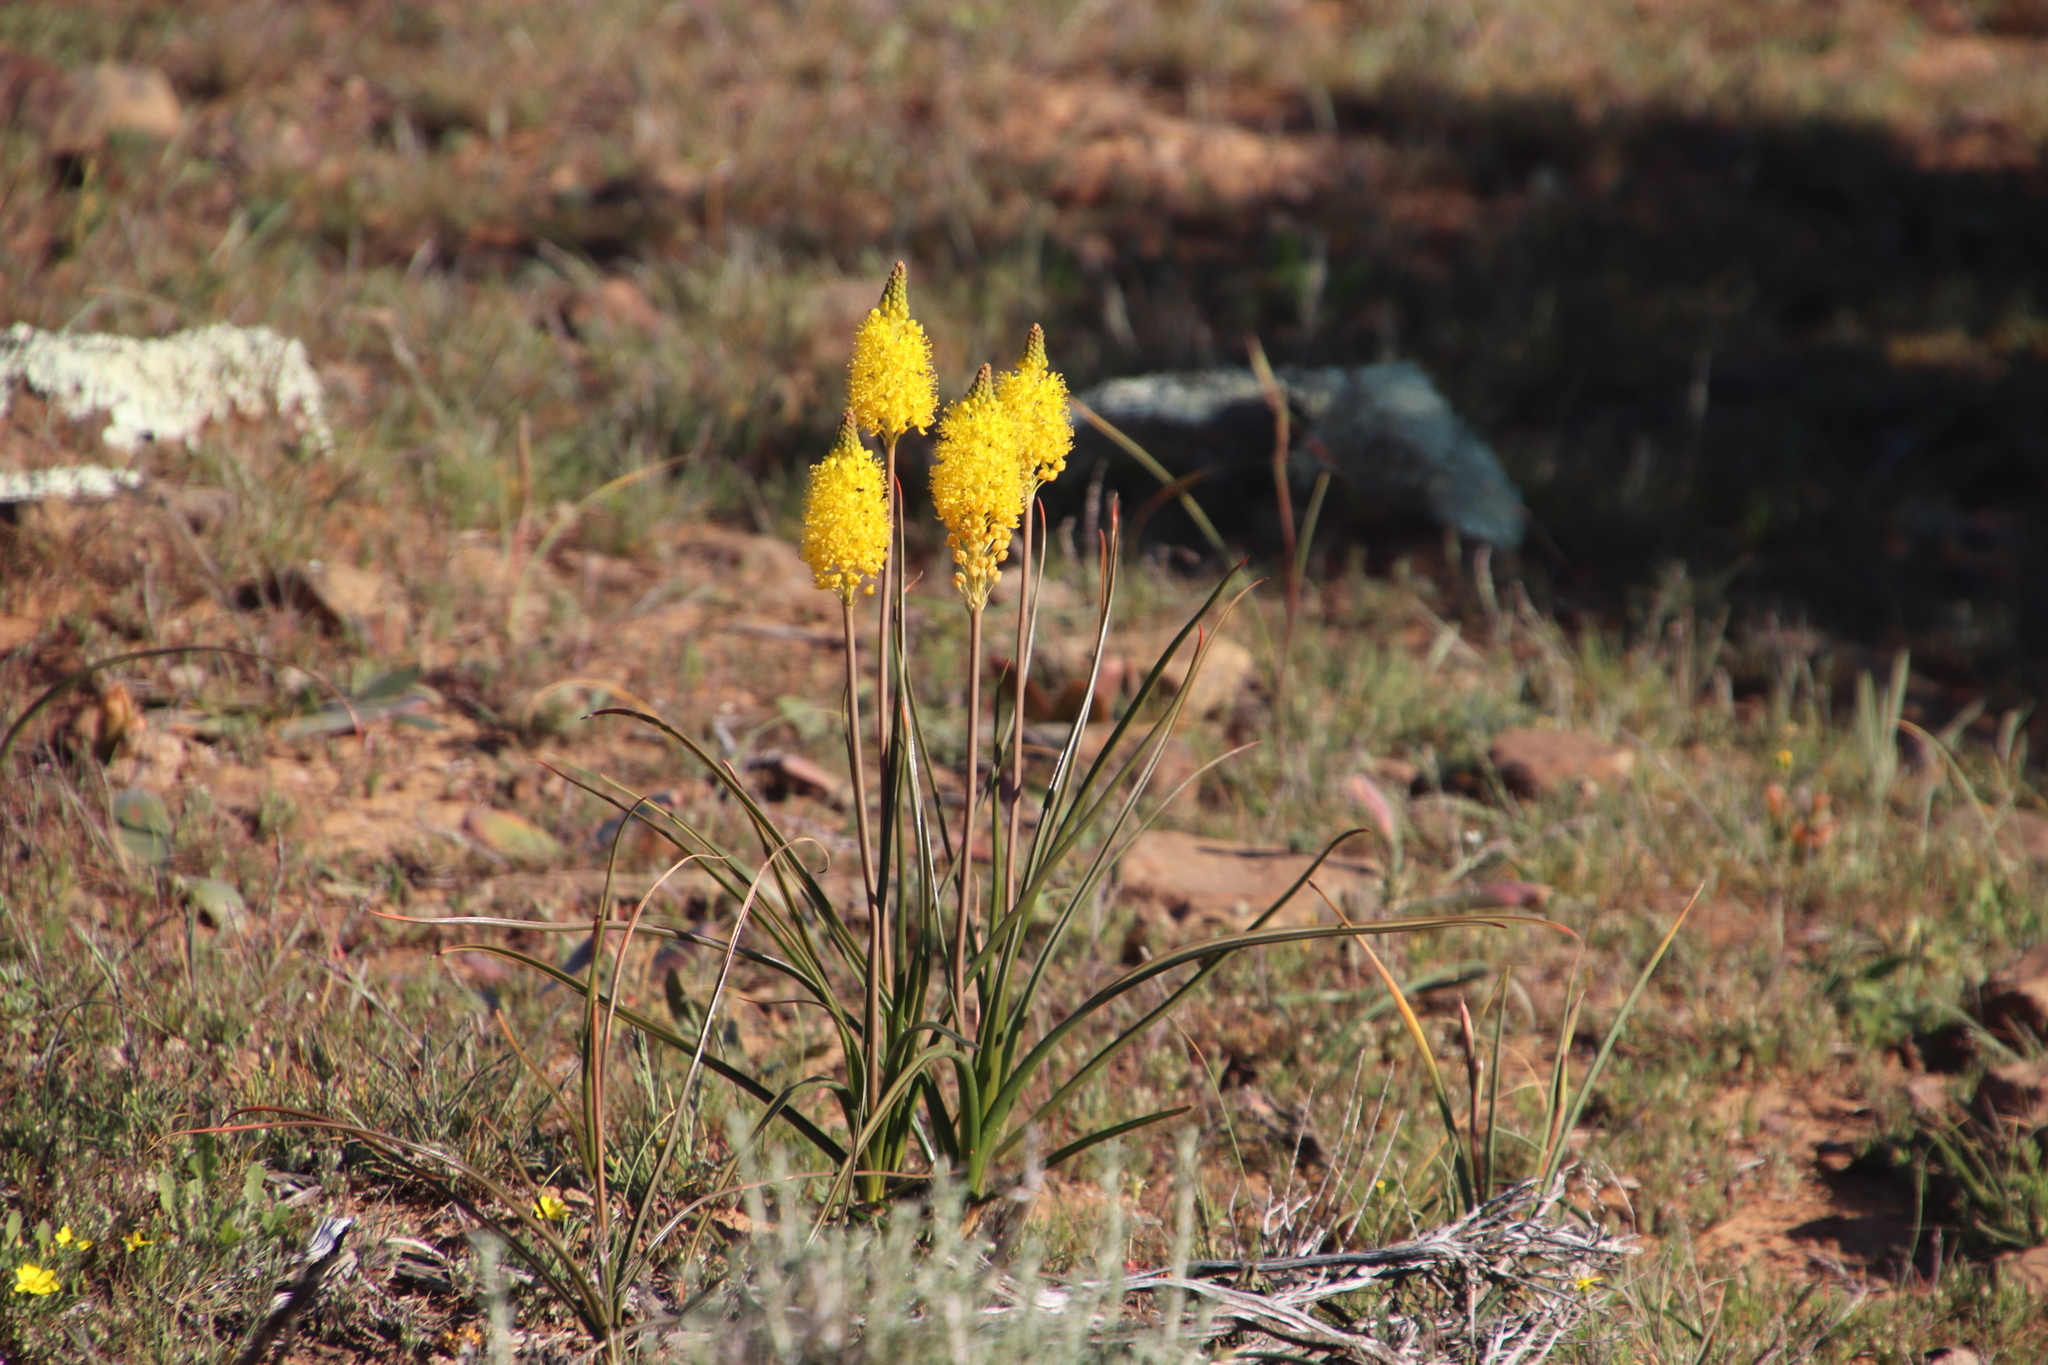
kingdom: Plantae
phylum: Tracheophyta
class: Liliopsida
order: Asparagales
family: Asphodelaceae
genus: Bulbinella
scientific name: Bulbinella nutans
